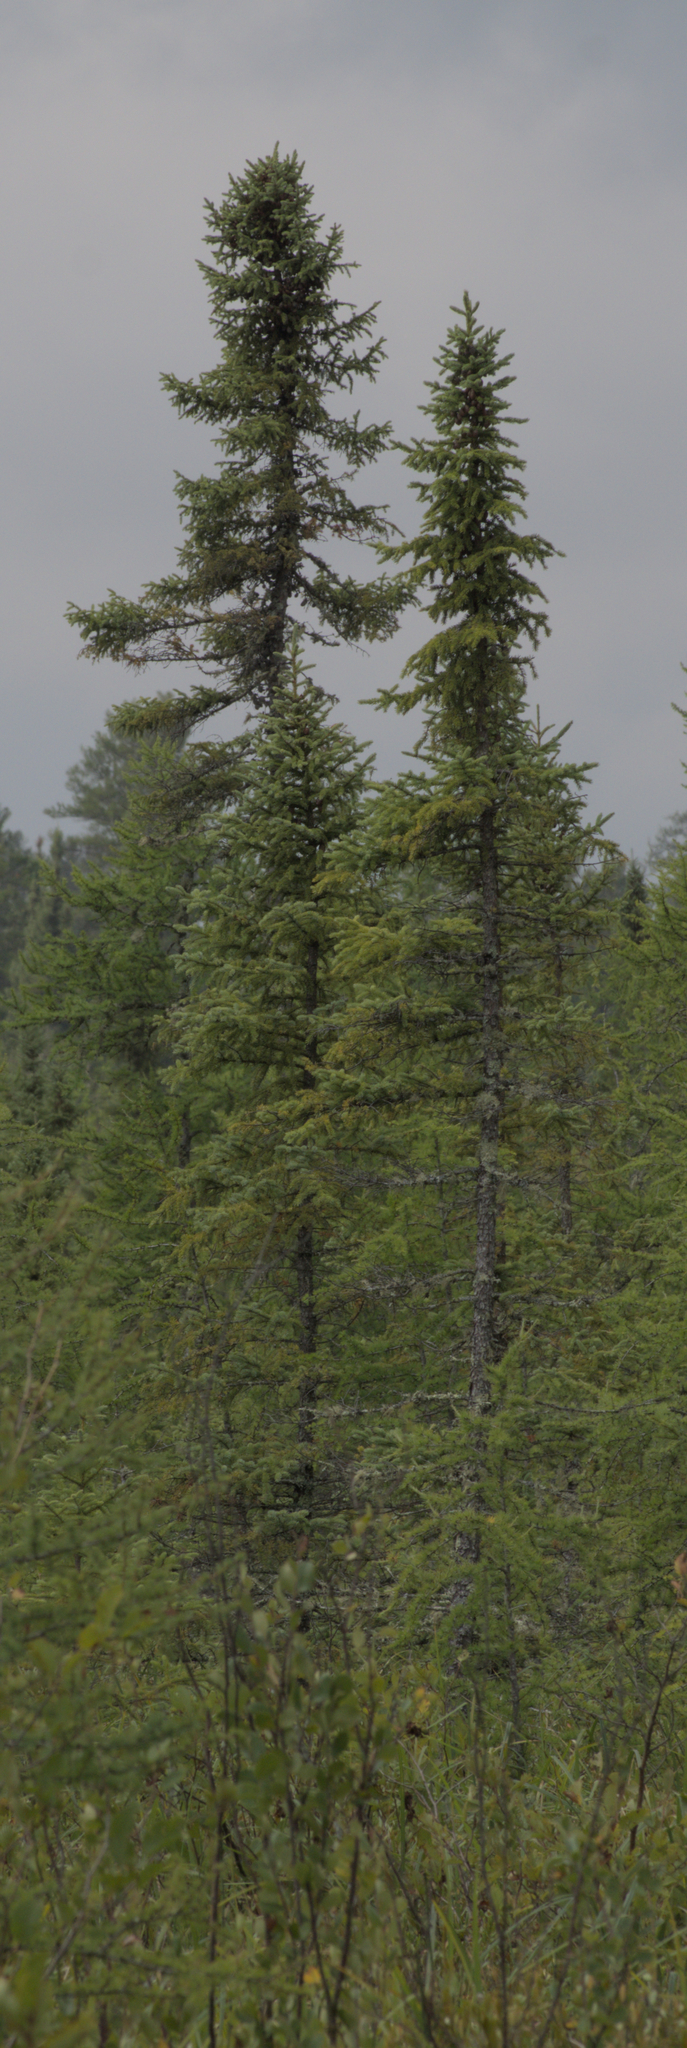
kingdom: Plantae
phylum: Tracheophyta
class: Pinopsida
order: Pinales
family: Pinaceae
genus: Picea
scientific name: Picea mariana
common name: Black spruce
